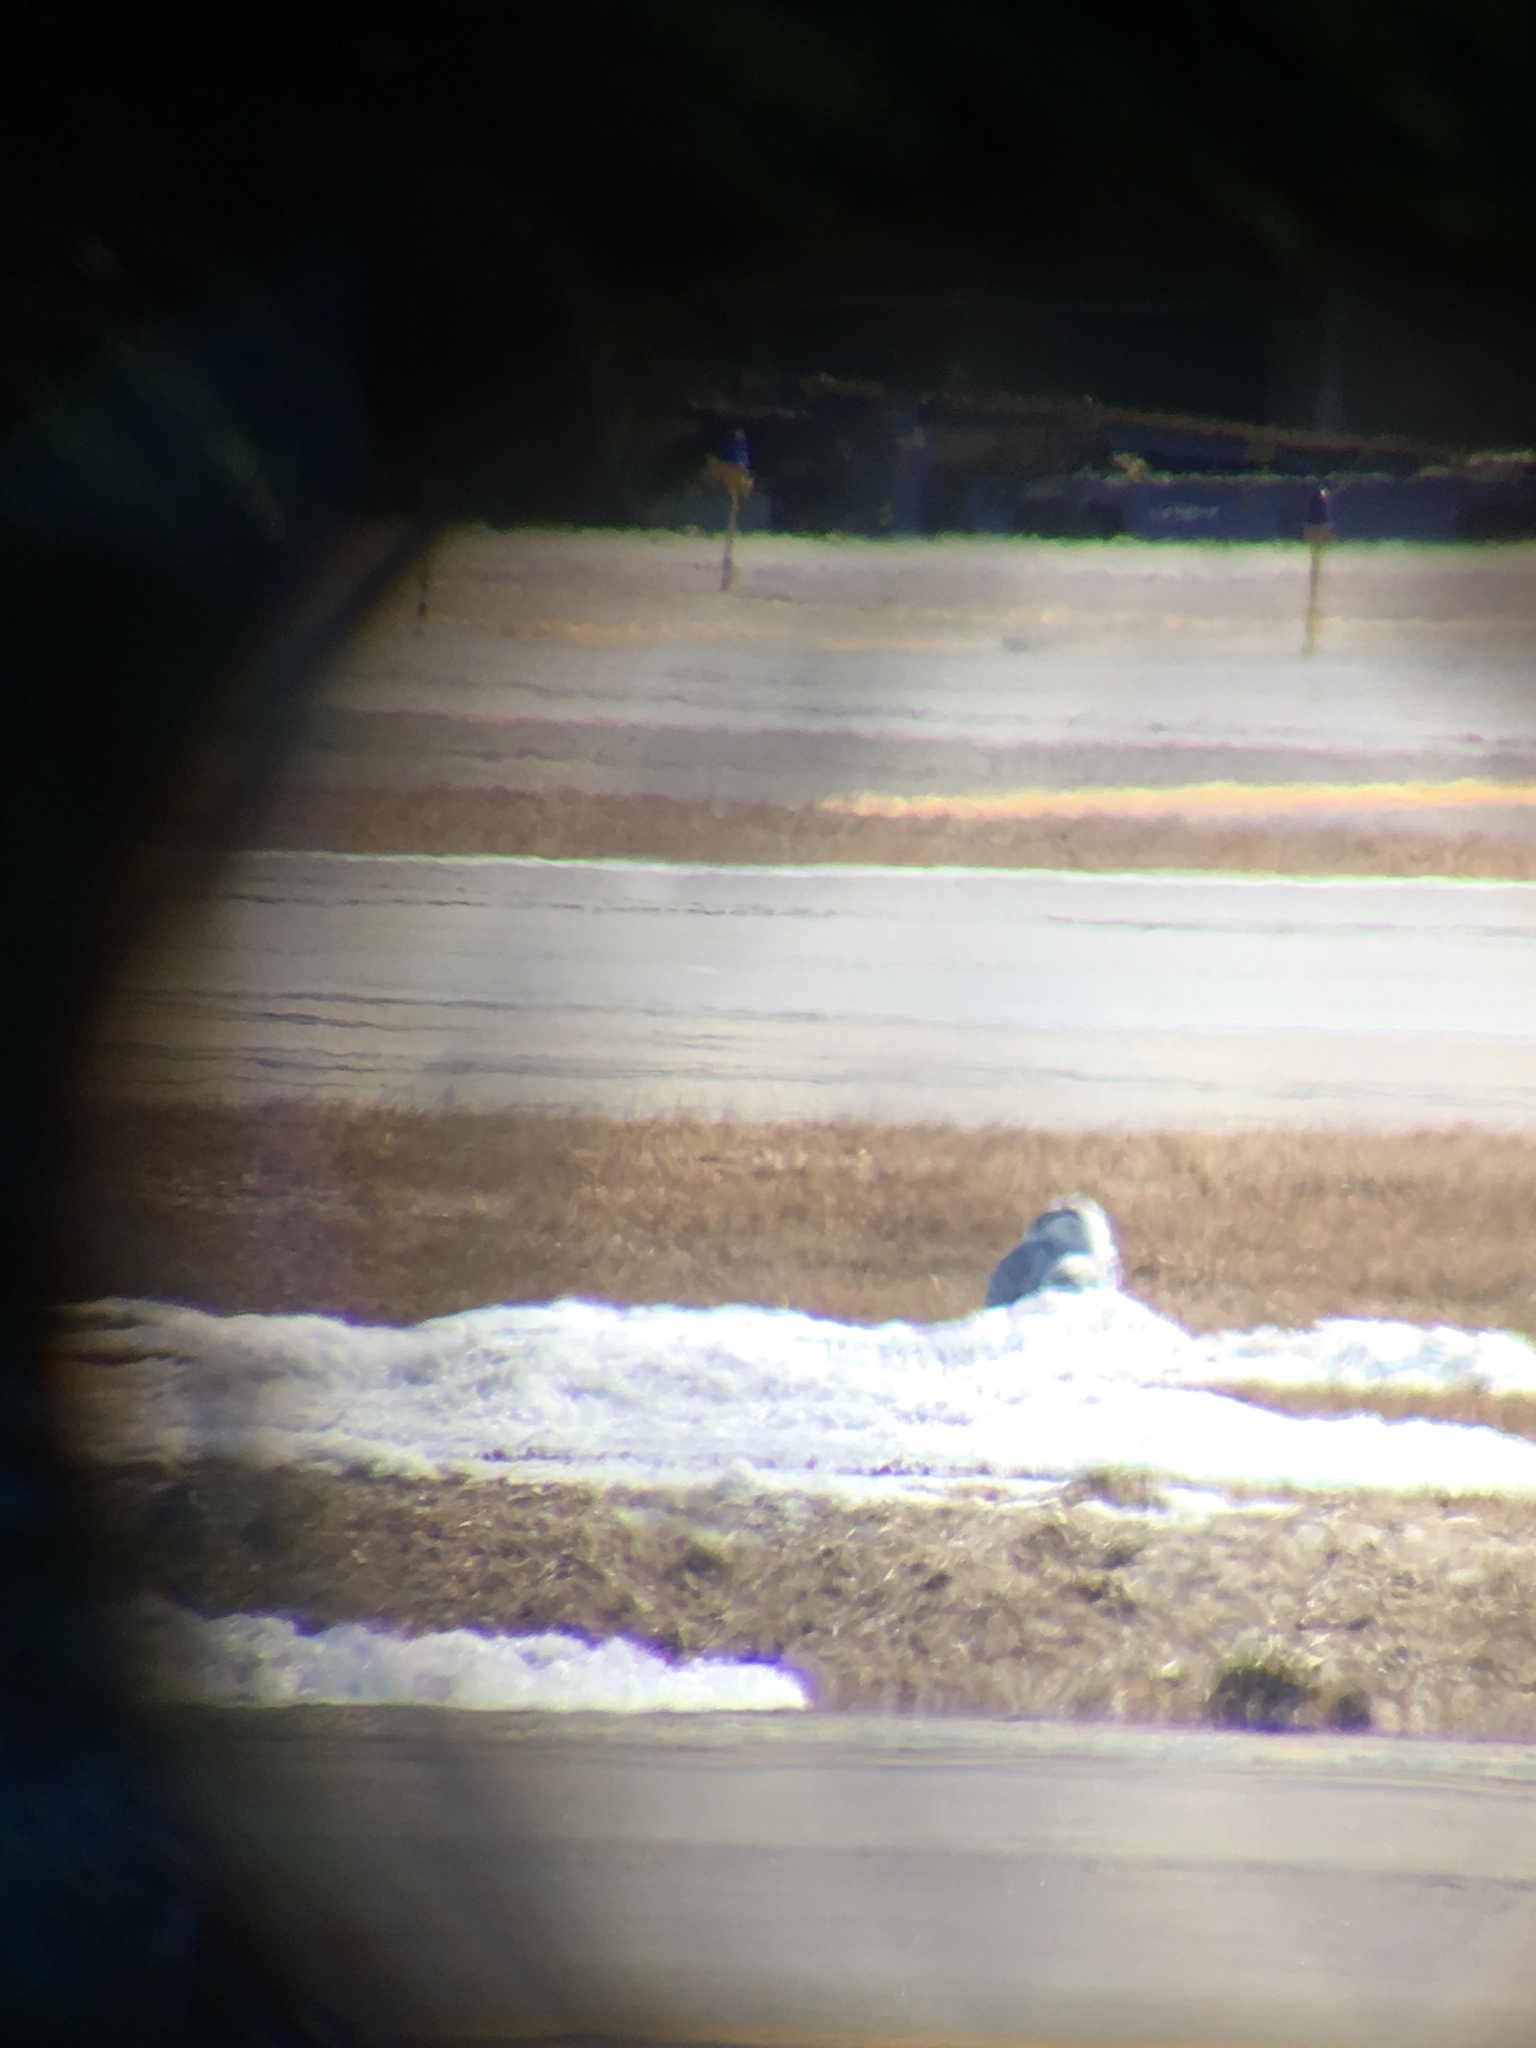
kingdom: Animalia
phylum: Chordata
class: Aves
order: Strigiformes
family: Strigidae
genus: Bubo
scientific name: Bubo scandiacus
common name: Snowy owl
